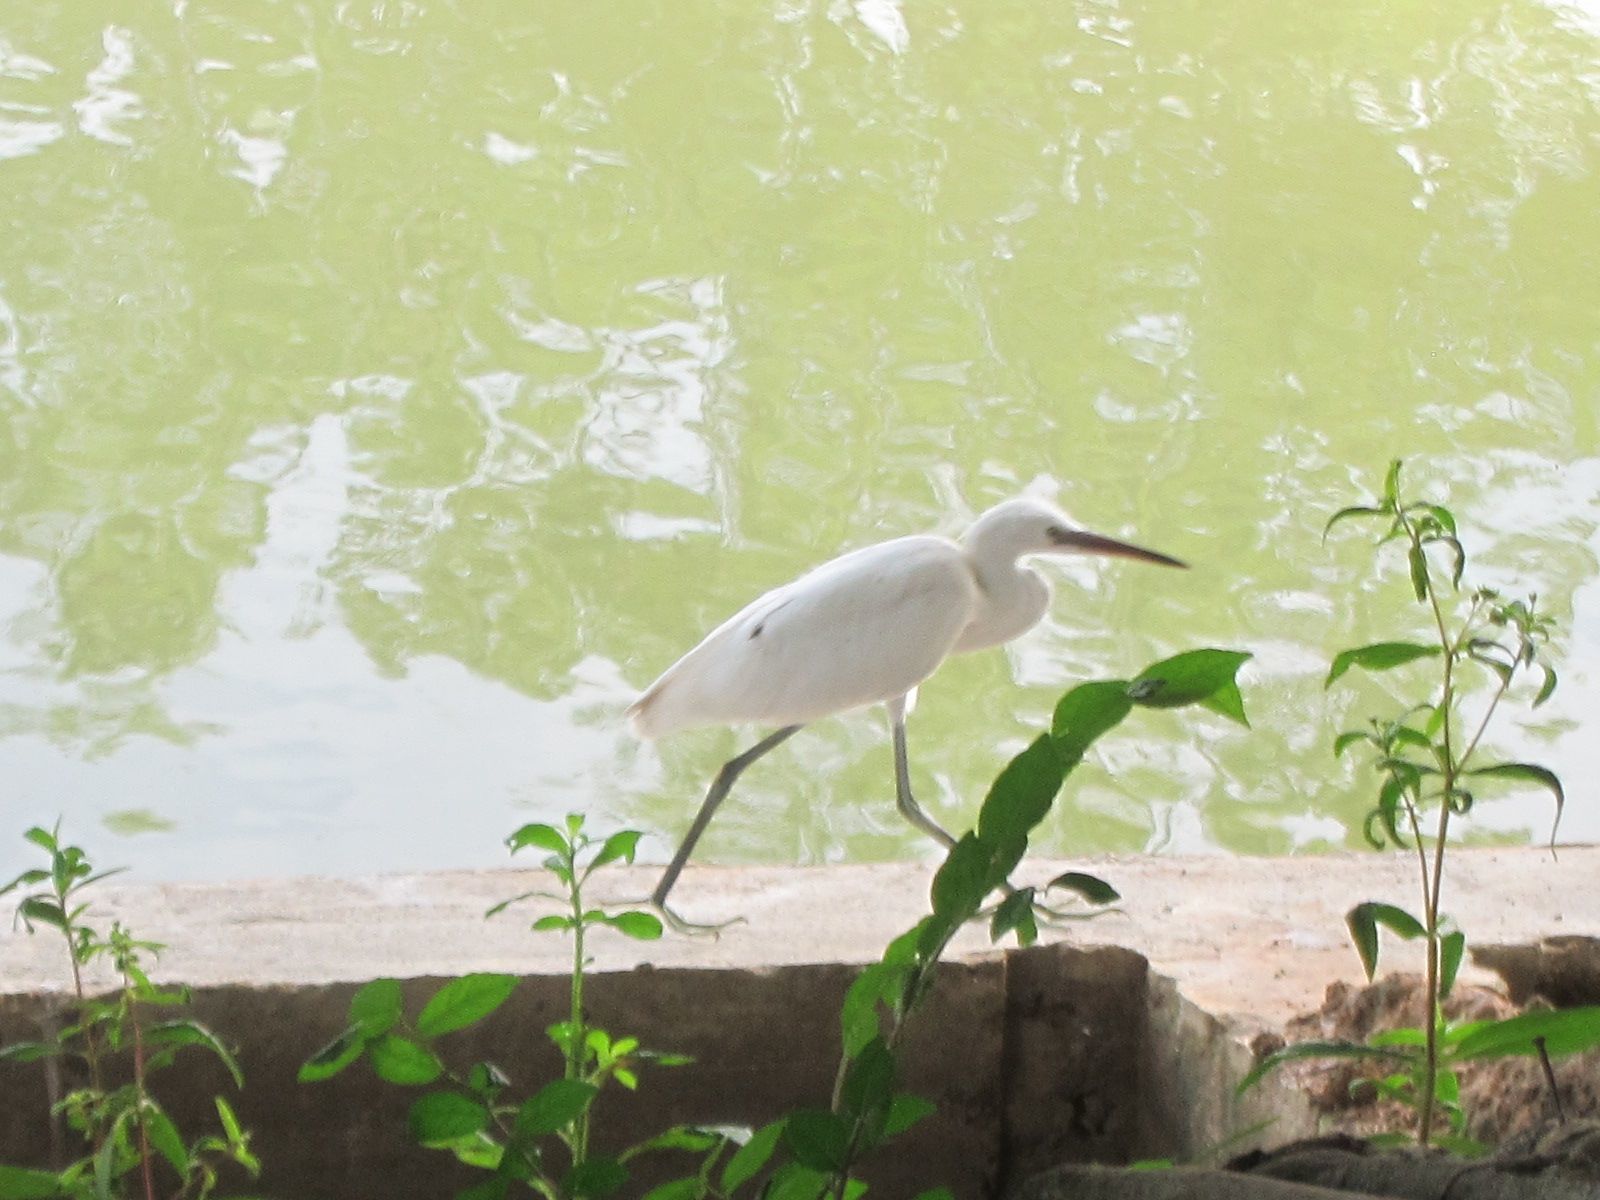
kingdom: Animalia
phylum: Chordata
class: Aves
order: Pelecaniformes
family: Ardeidae
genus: Egretta
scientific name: Egretta garzetta
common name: Little egret
